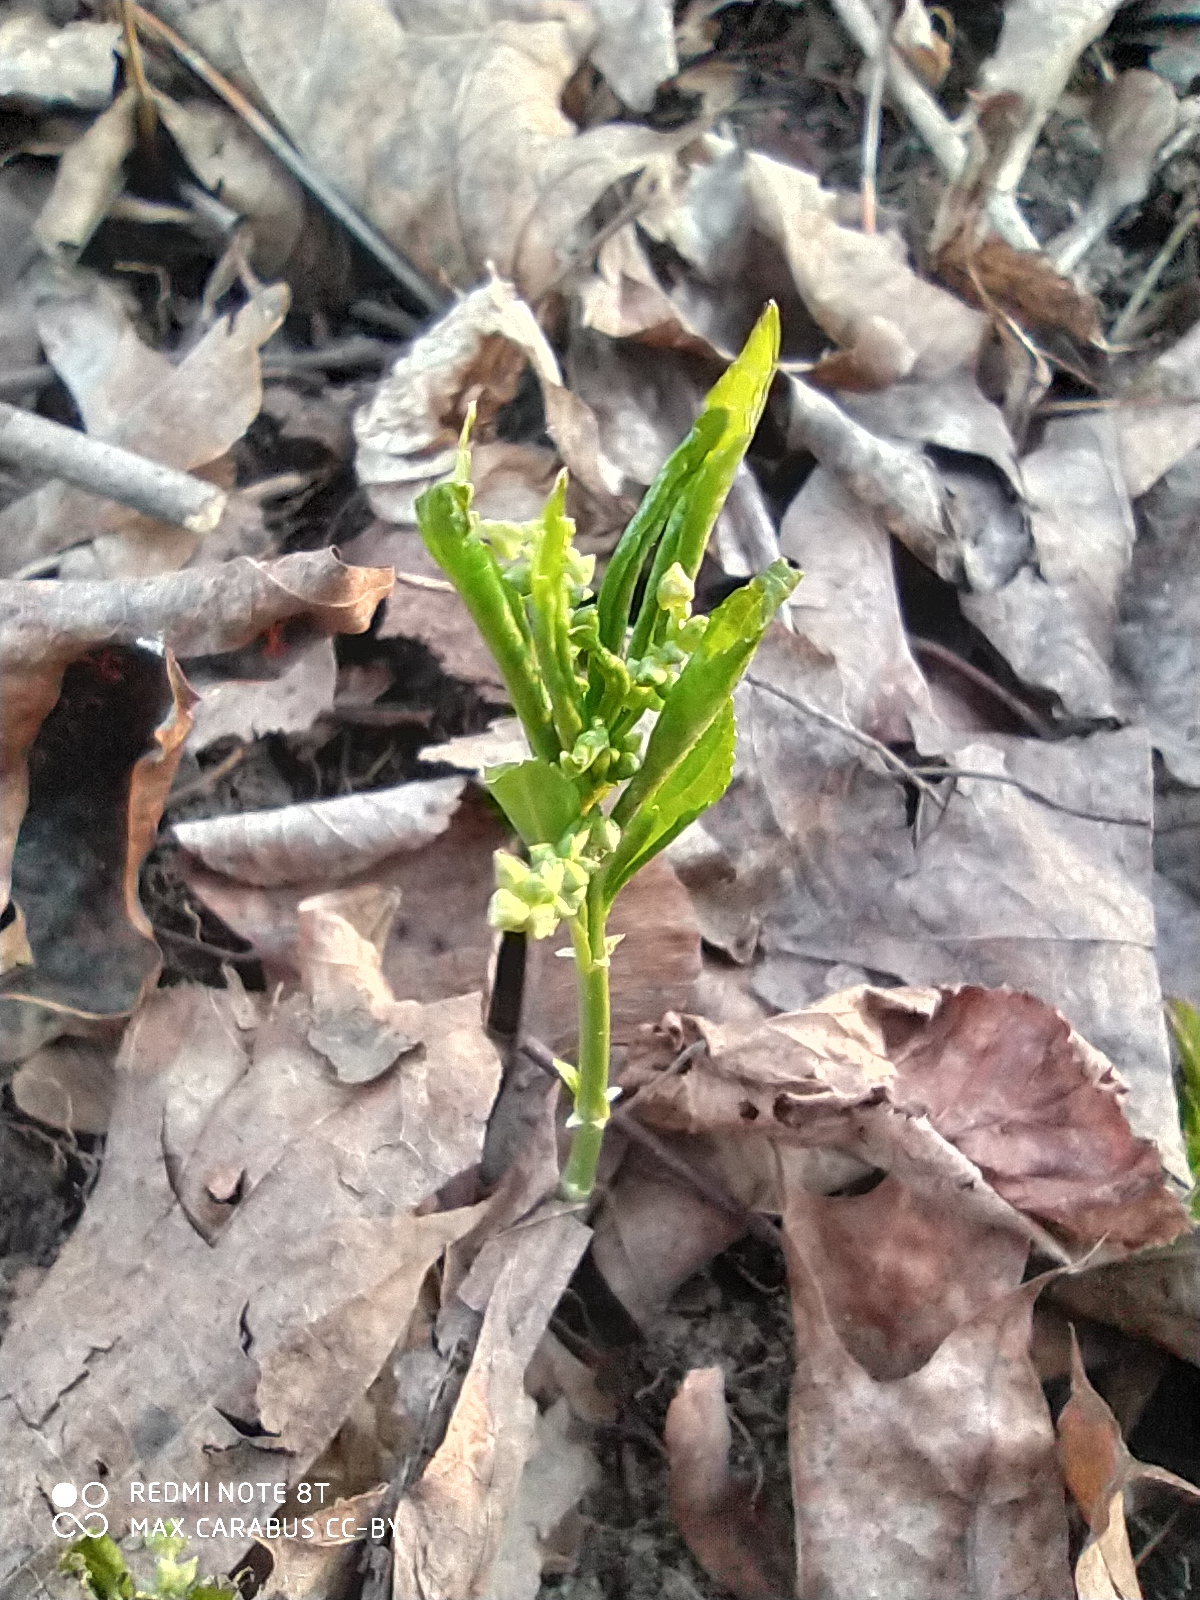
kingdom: Plantae
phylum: Tracheophyta
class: Magnoliopsida
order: Malpighiales
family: Euphorbiaceae
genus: Mercurialis
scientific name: Mercurialis perennis
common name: Dog mercury
